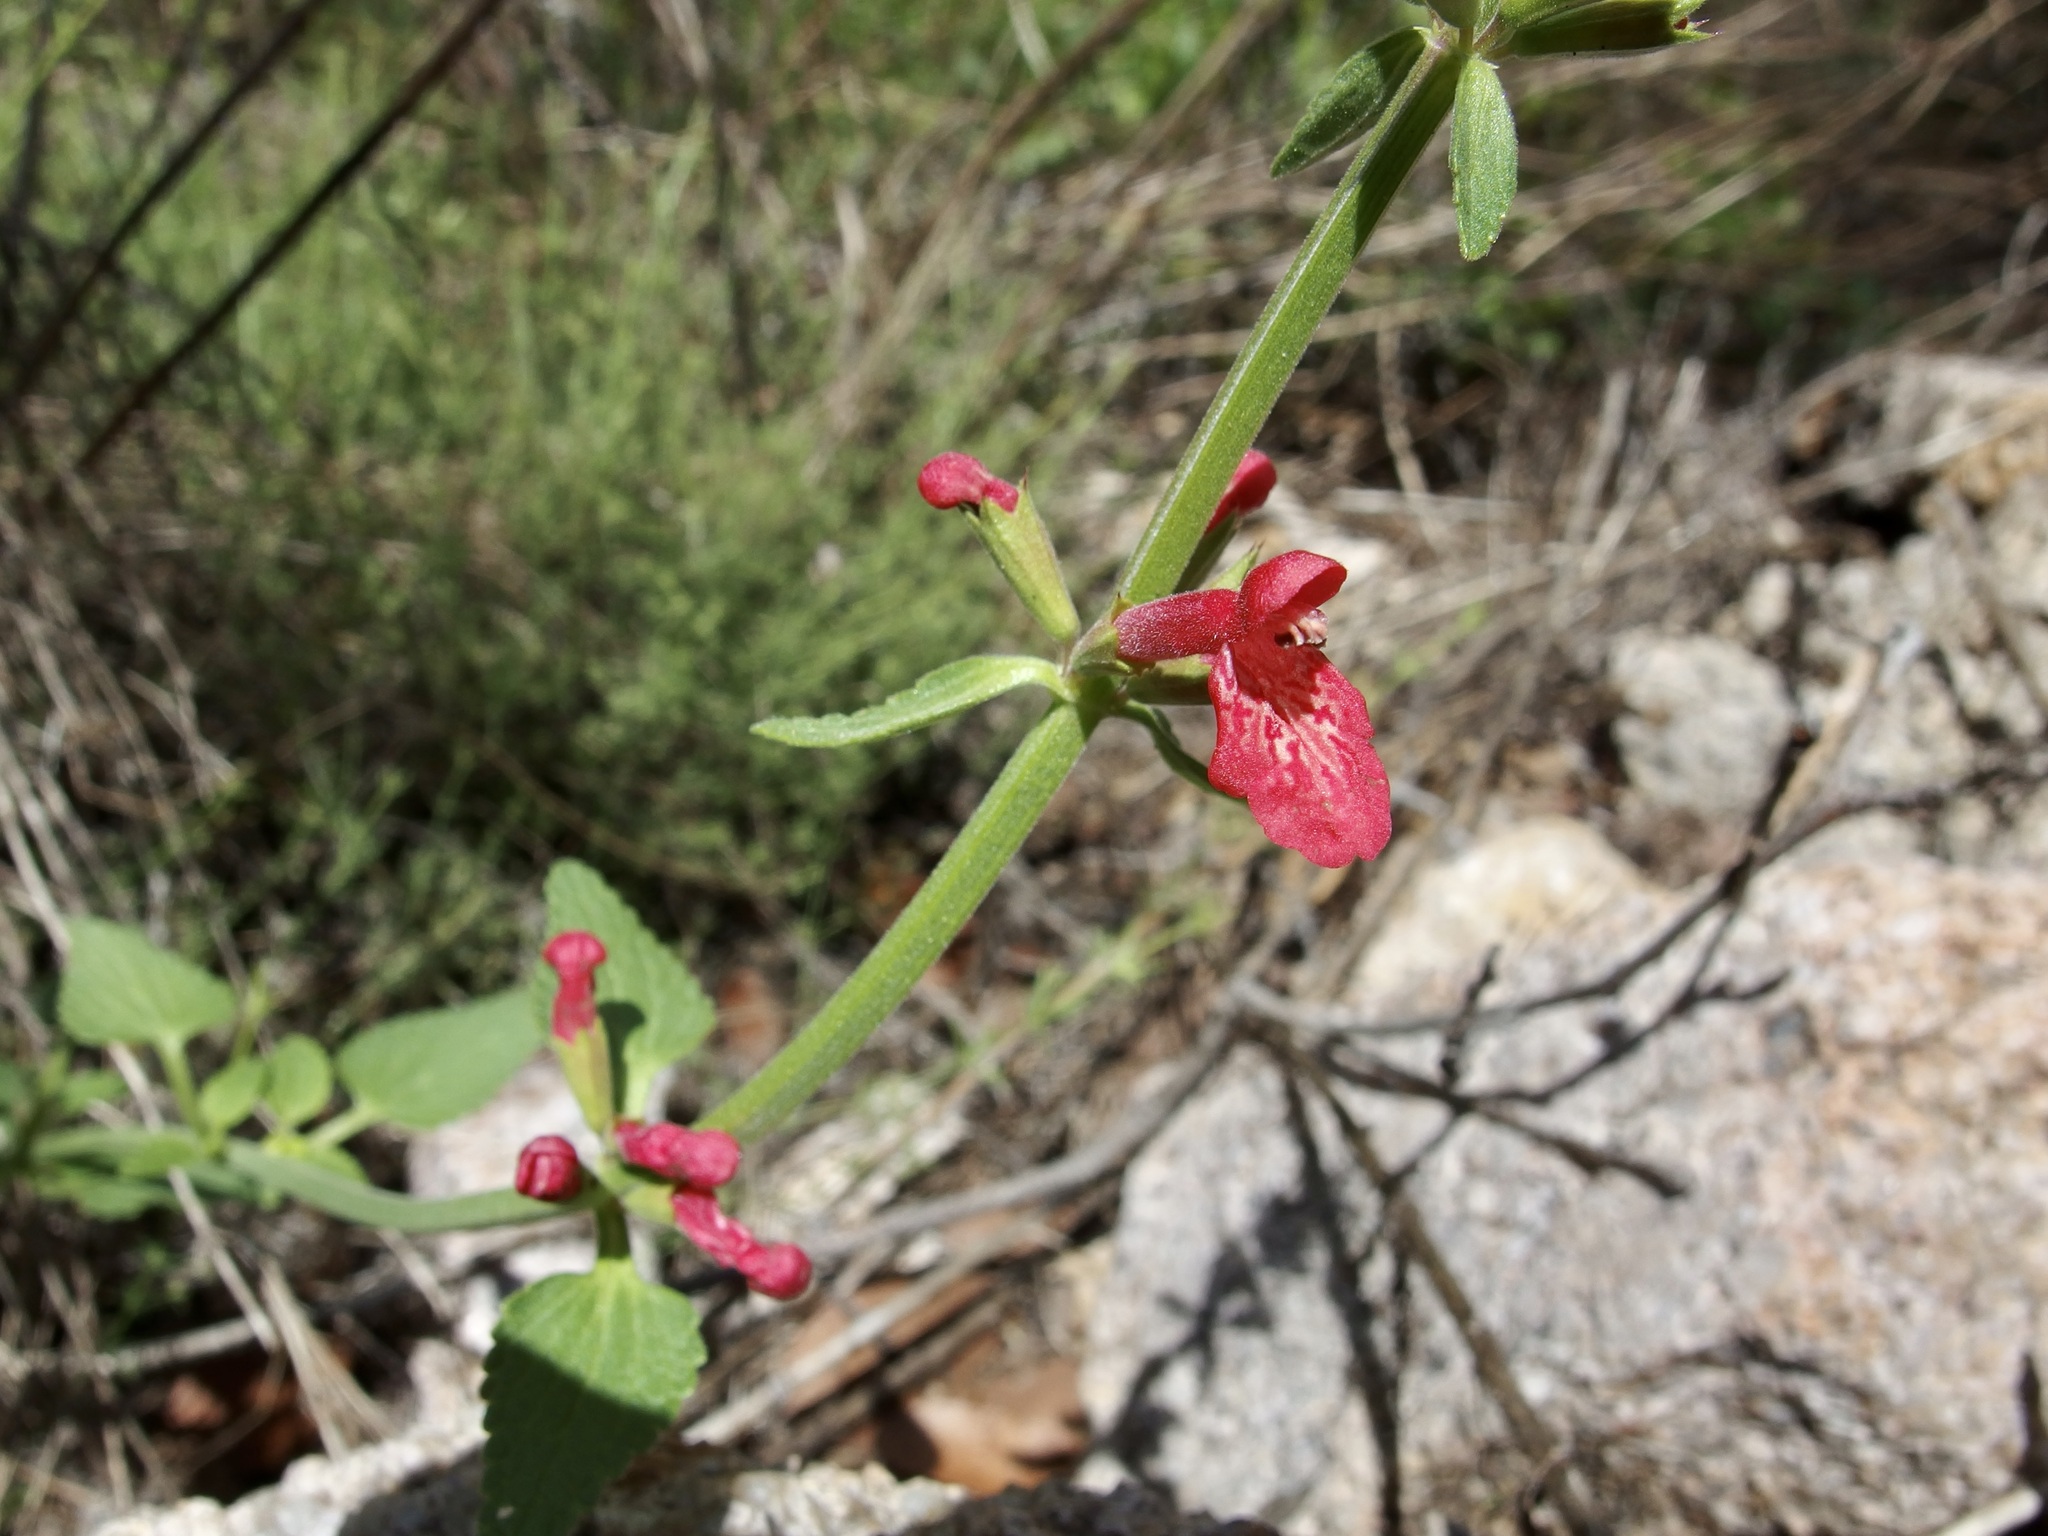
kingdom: Plantae
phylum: Tracheophyta
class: Magnoliopsida
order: Lamiales
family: Lamiaceae
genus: Stachys
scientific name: Stachys coccinea
